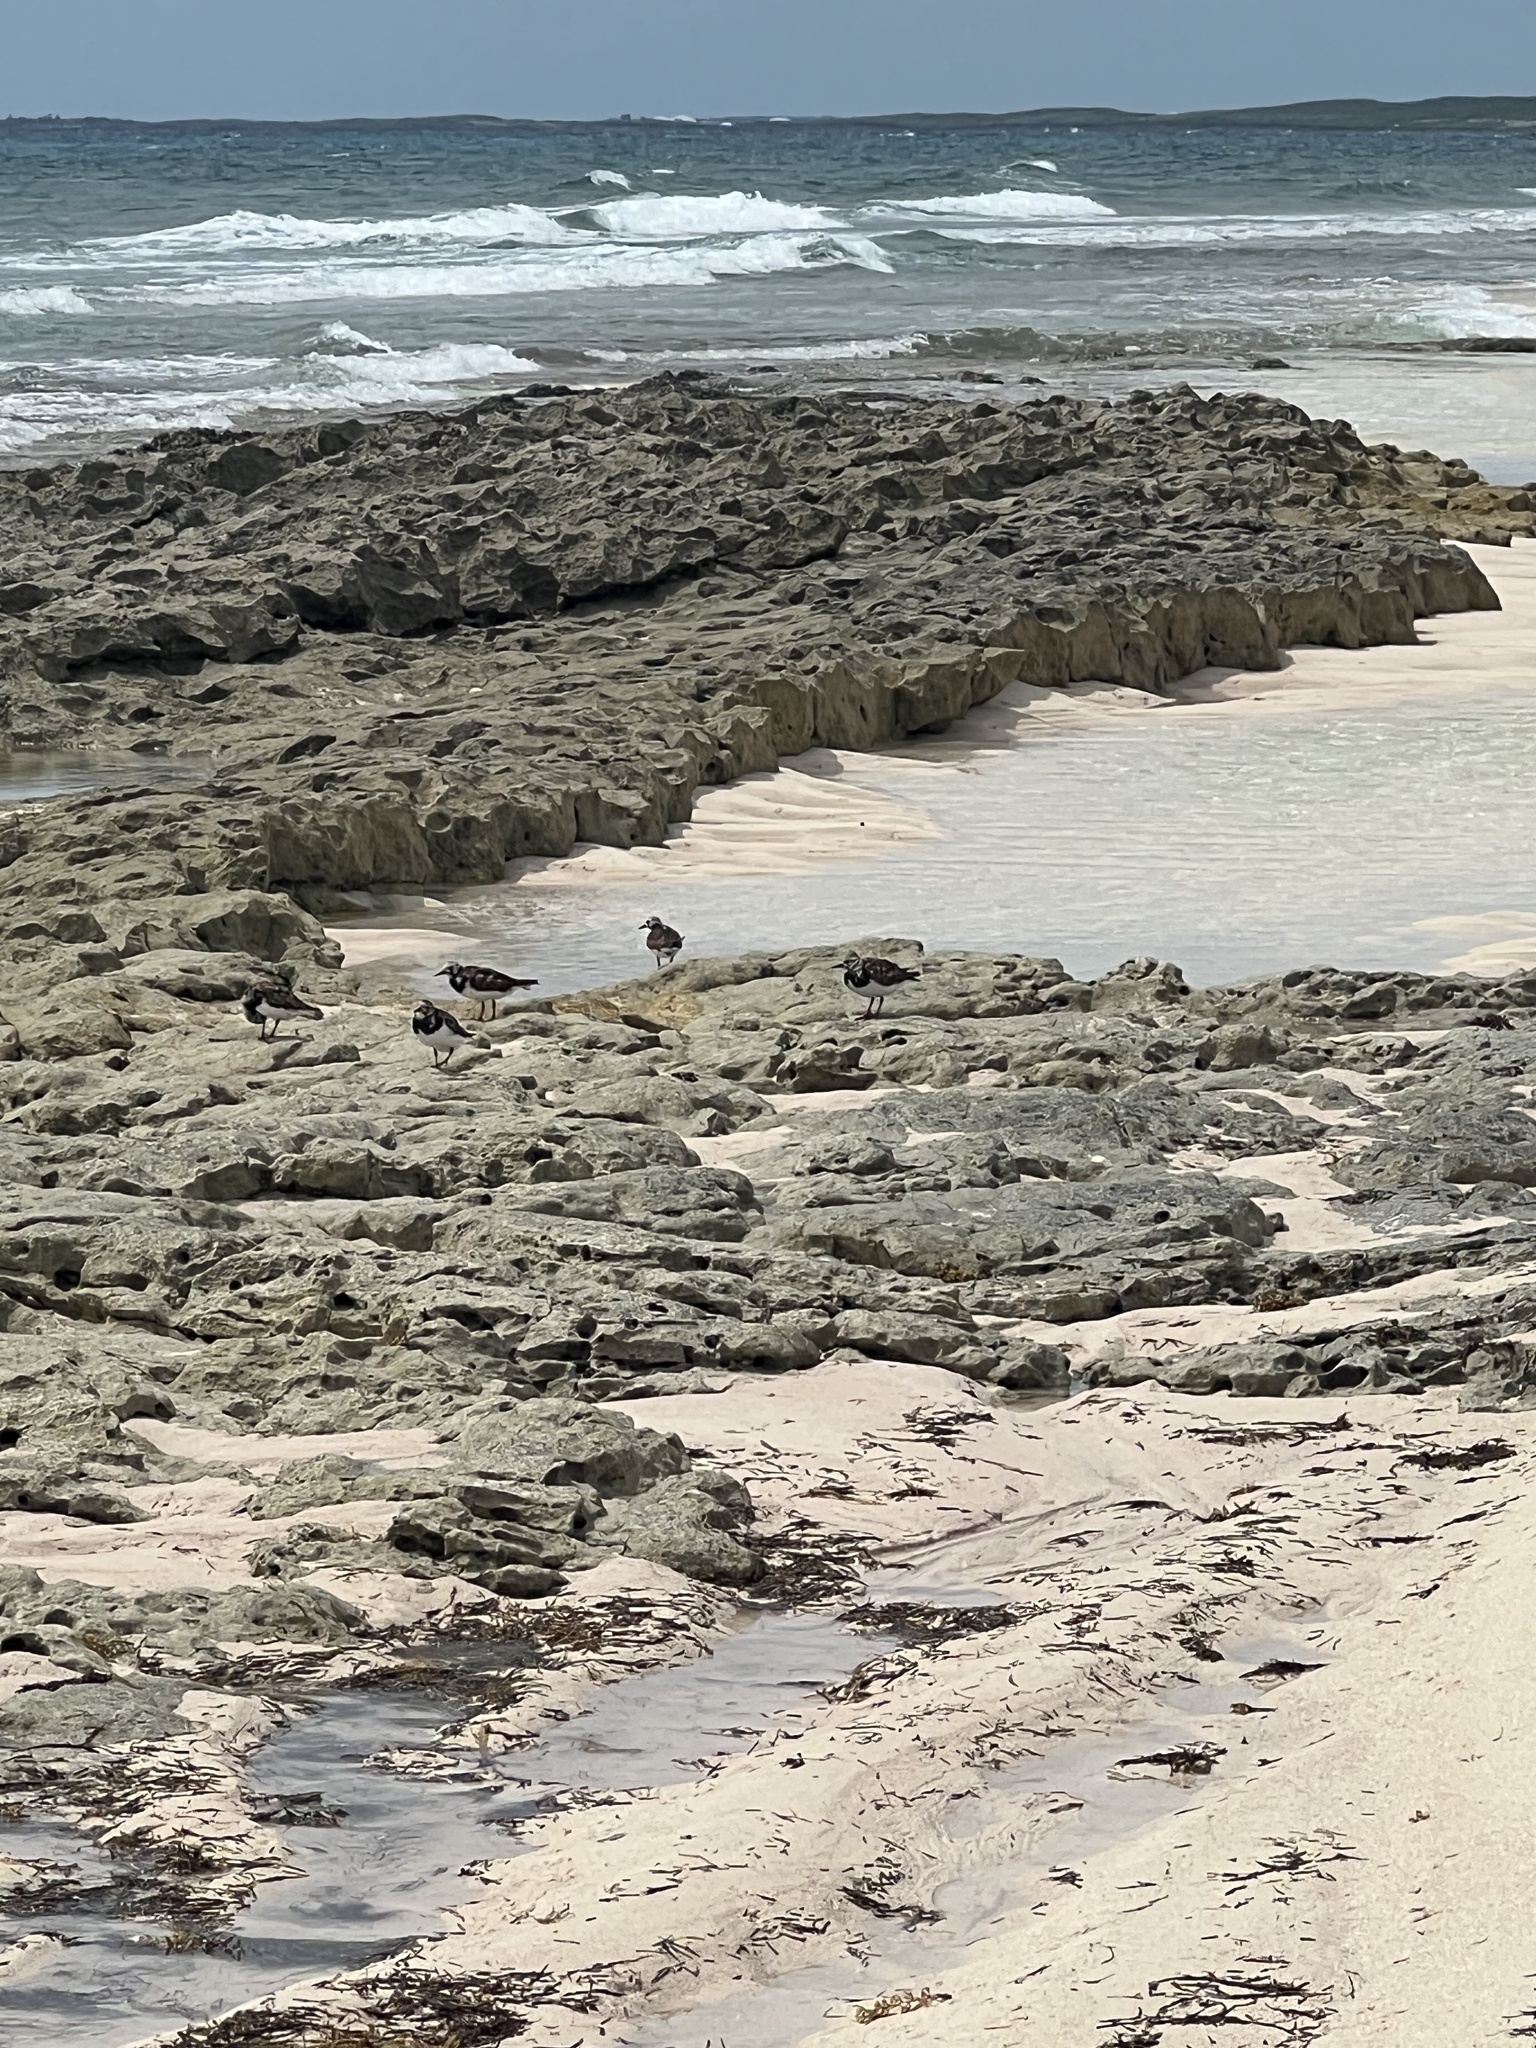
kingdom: Animalia
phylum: Chordata
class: Aves
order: Charadriiformes
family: Scolopacidae
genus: Arenaria
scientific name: Arenaria interpres
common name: Ruddy turnstone
